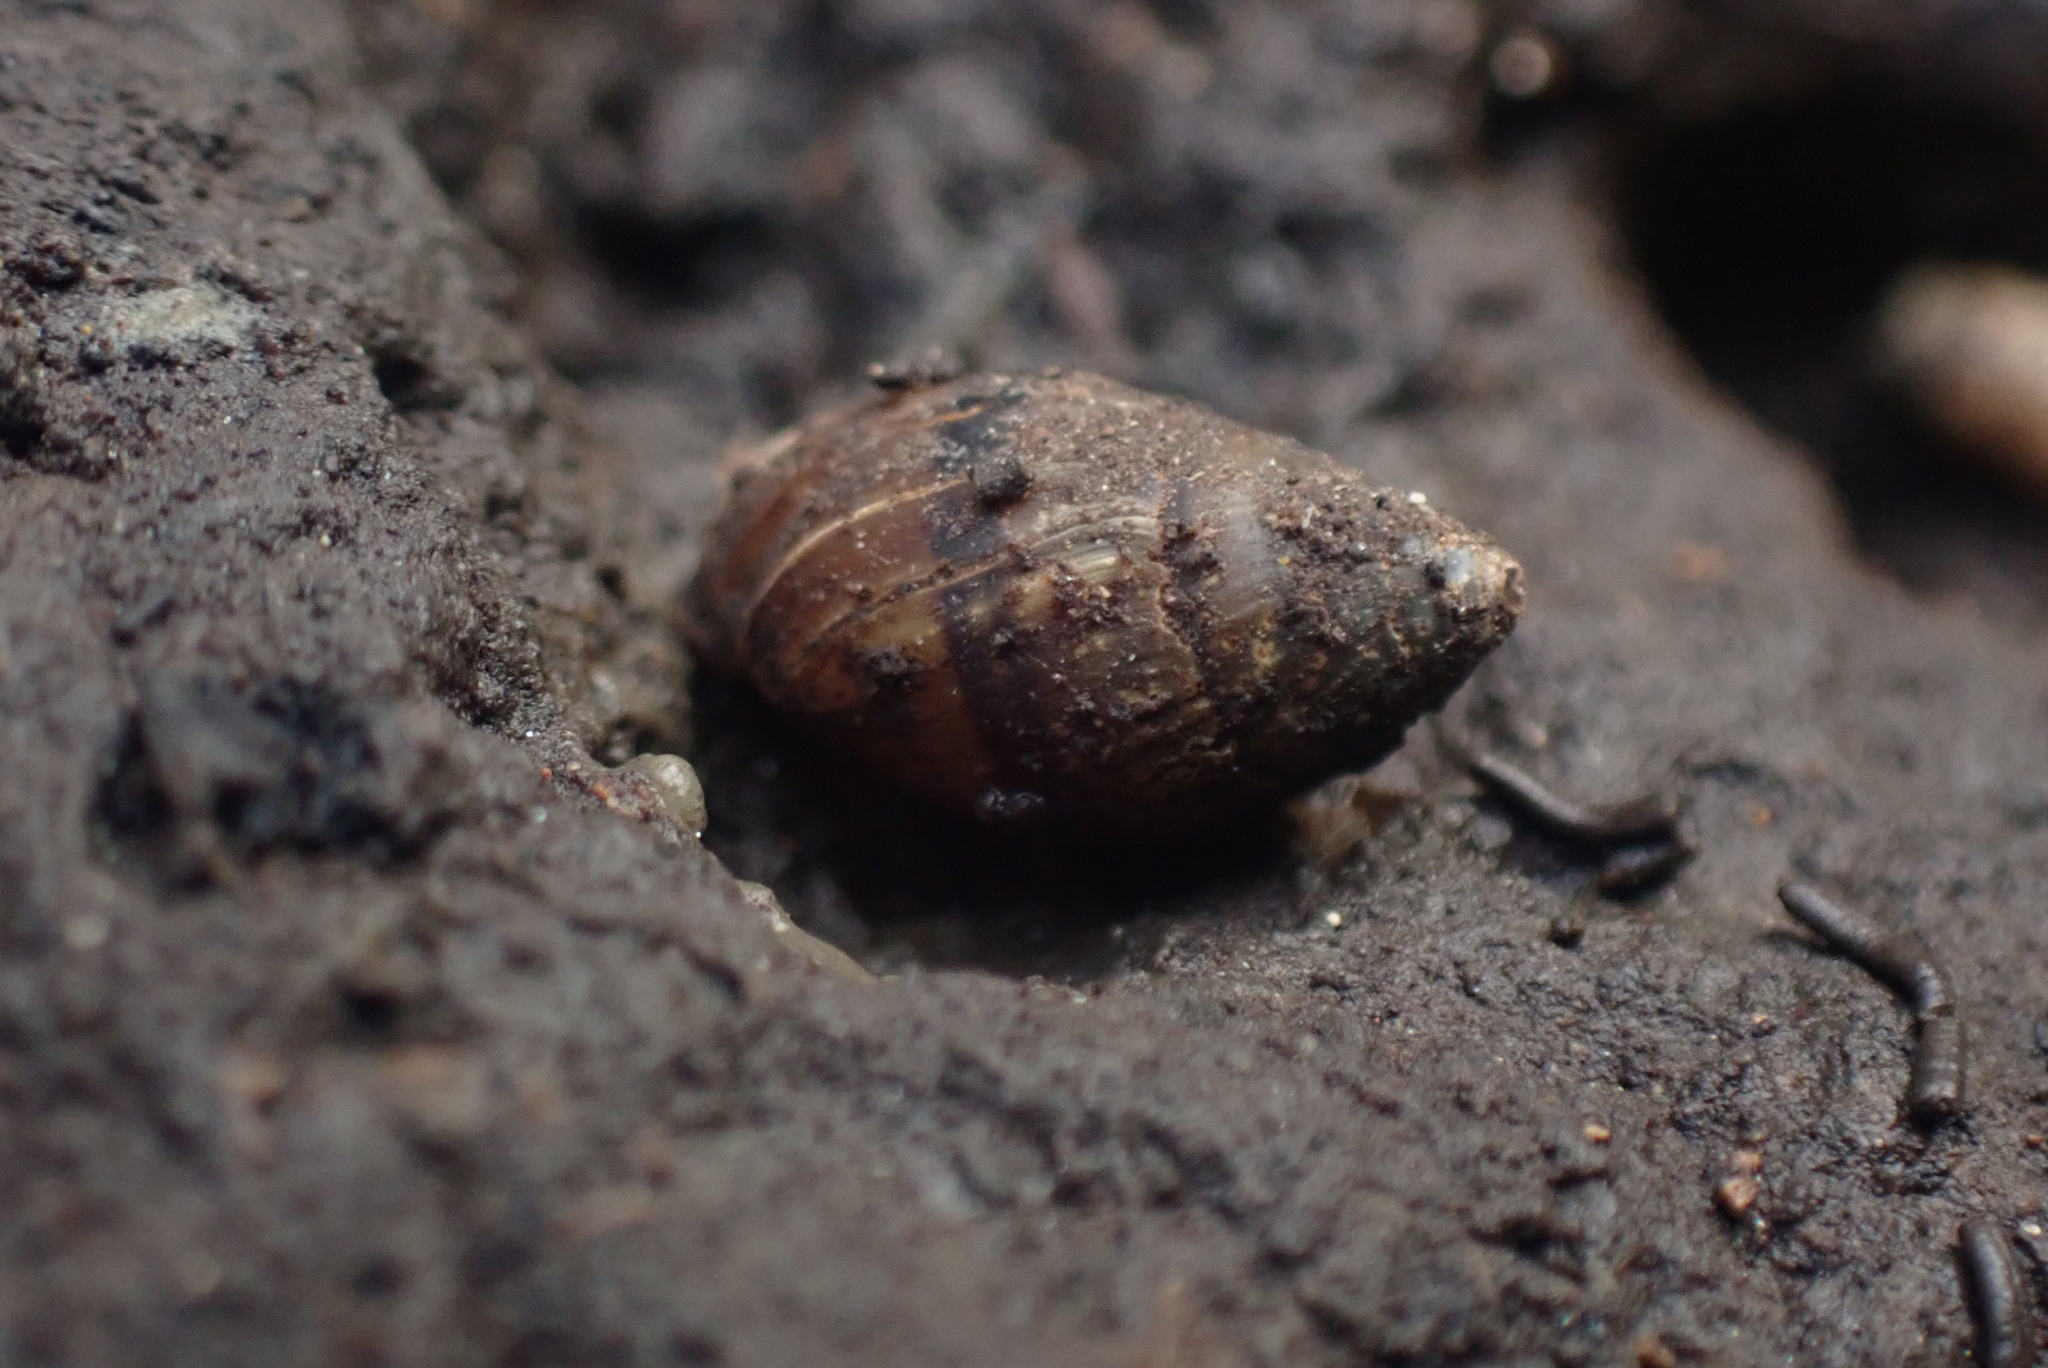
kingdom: Animalia
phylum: Mollusca
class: Gastropoda
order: Ellobiida
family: Ellobiidae
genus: Pleuroloba
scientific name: Pleuroloba costellaris
